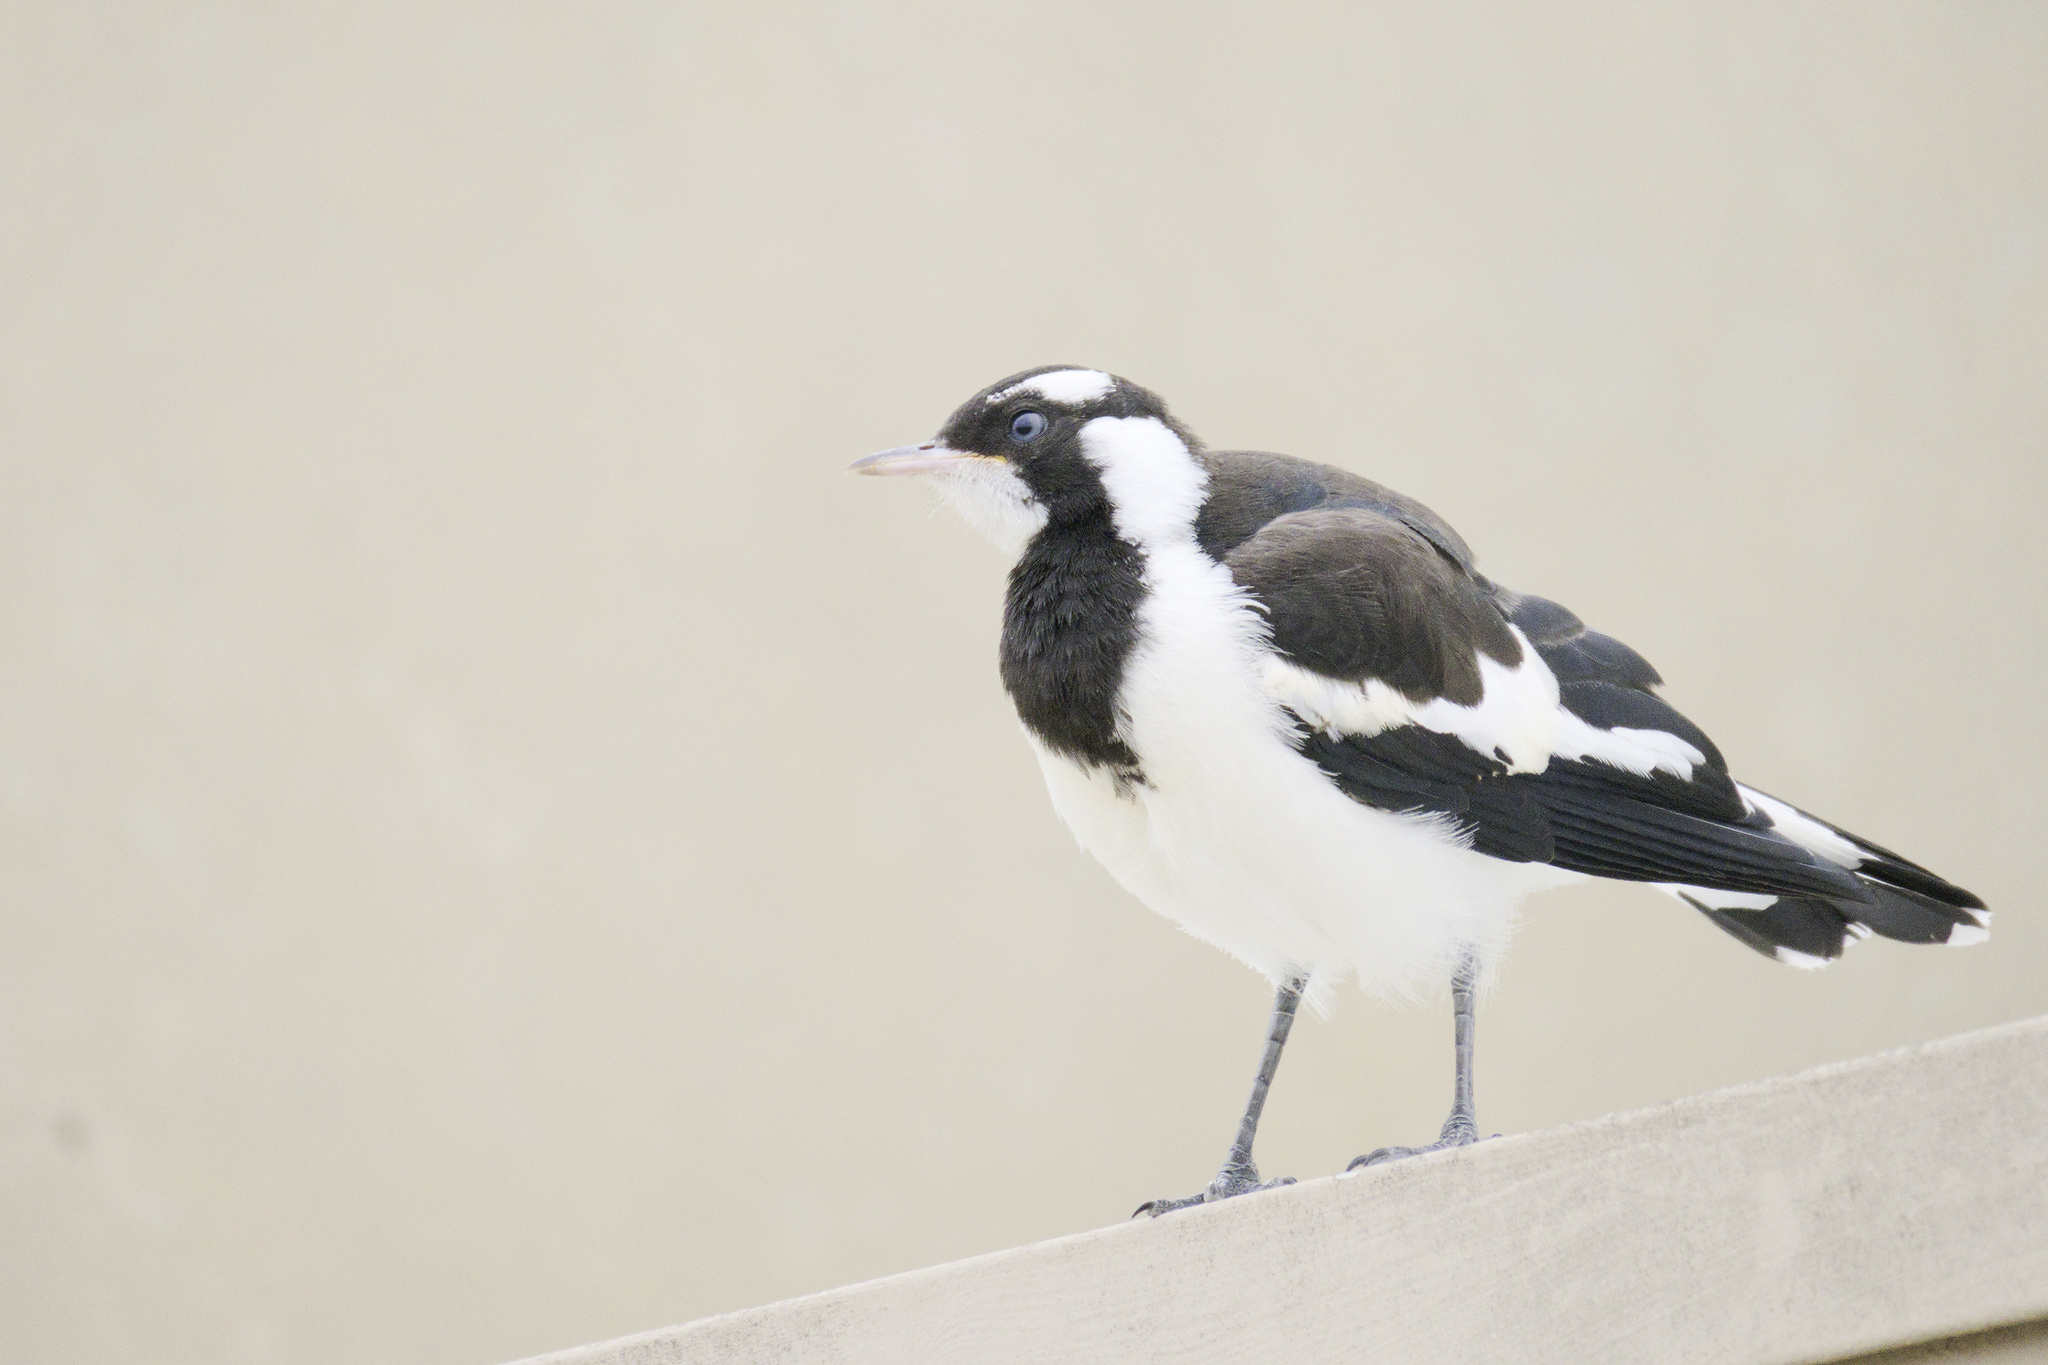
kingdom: Animalia
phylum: Chordata
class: Aves
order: Passeriformes
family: Monarchidae
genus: Grallina
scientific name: Grallina cyanoleuca
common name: Magpie-lark
